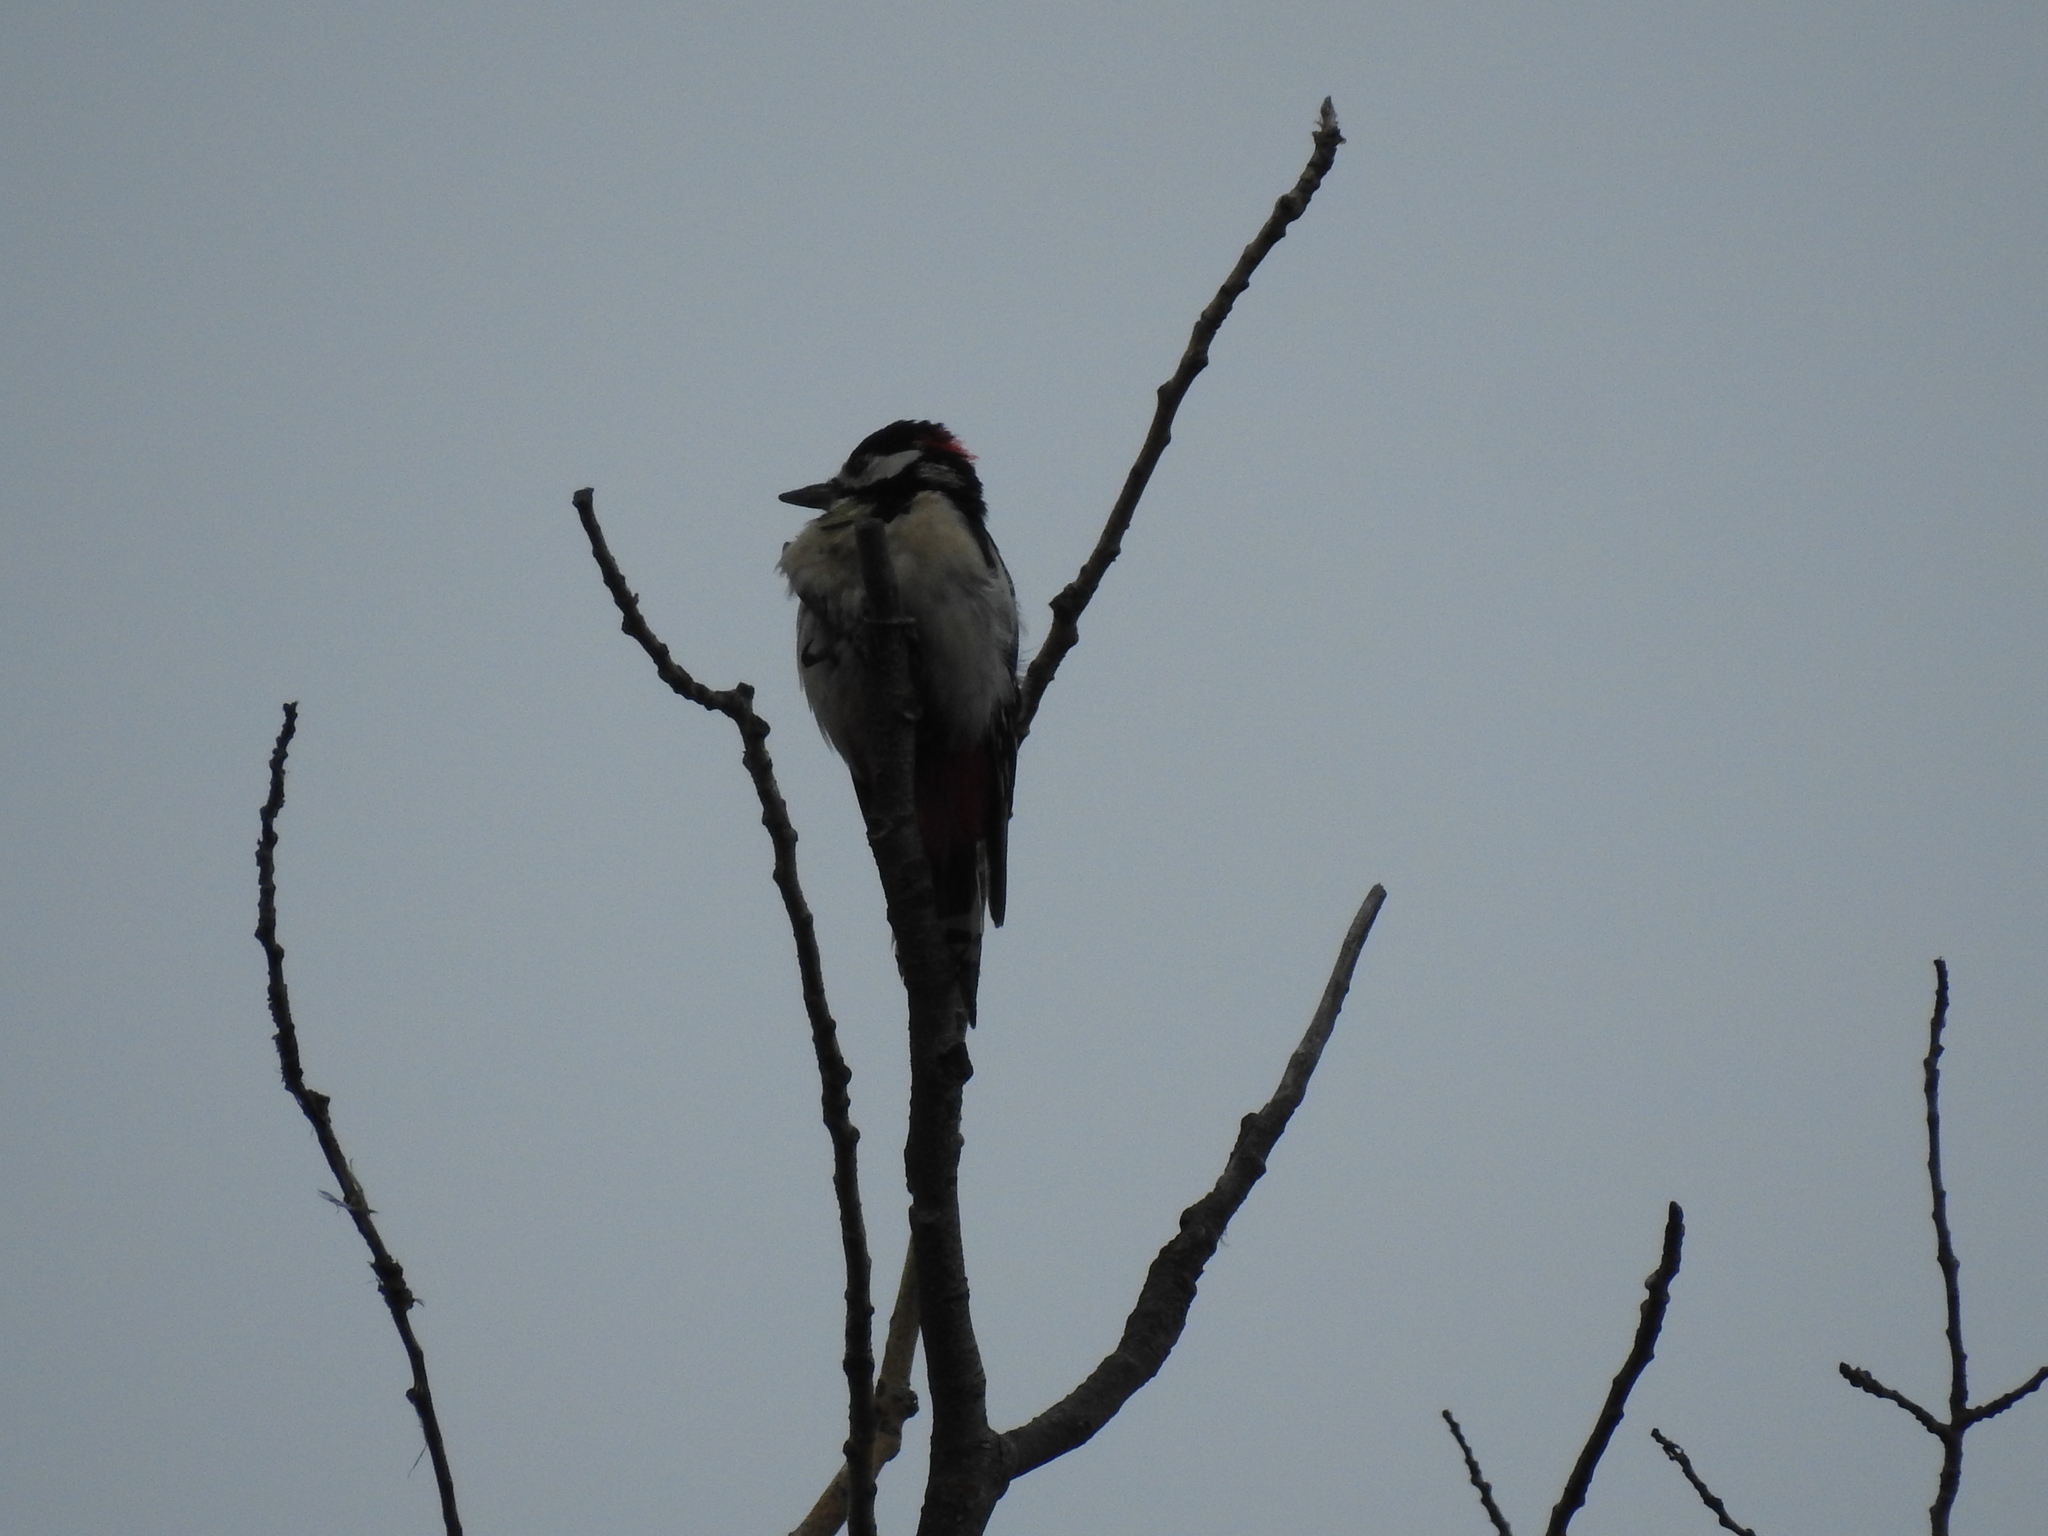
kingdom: Animalia
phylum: Chordata
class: Aves
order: Piciformes
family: Picidae
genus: Dendrocopos
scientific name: Dendrocopos major
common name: Great spotted woodpecker
